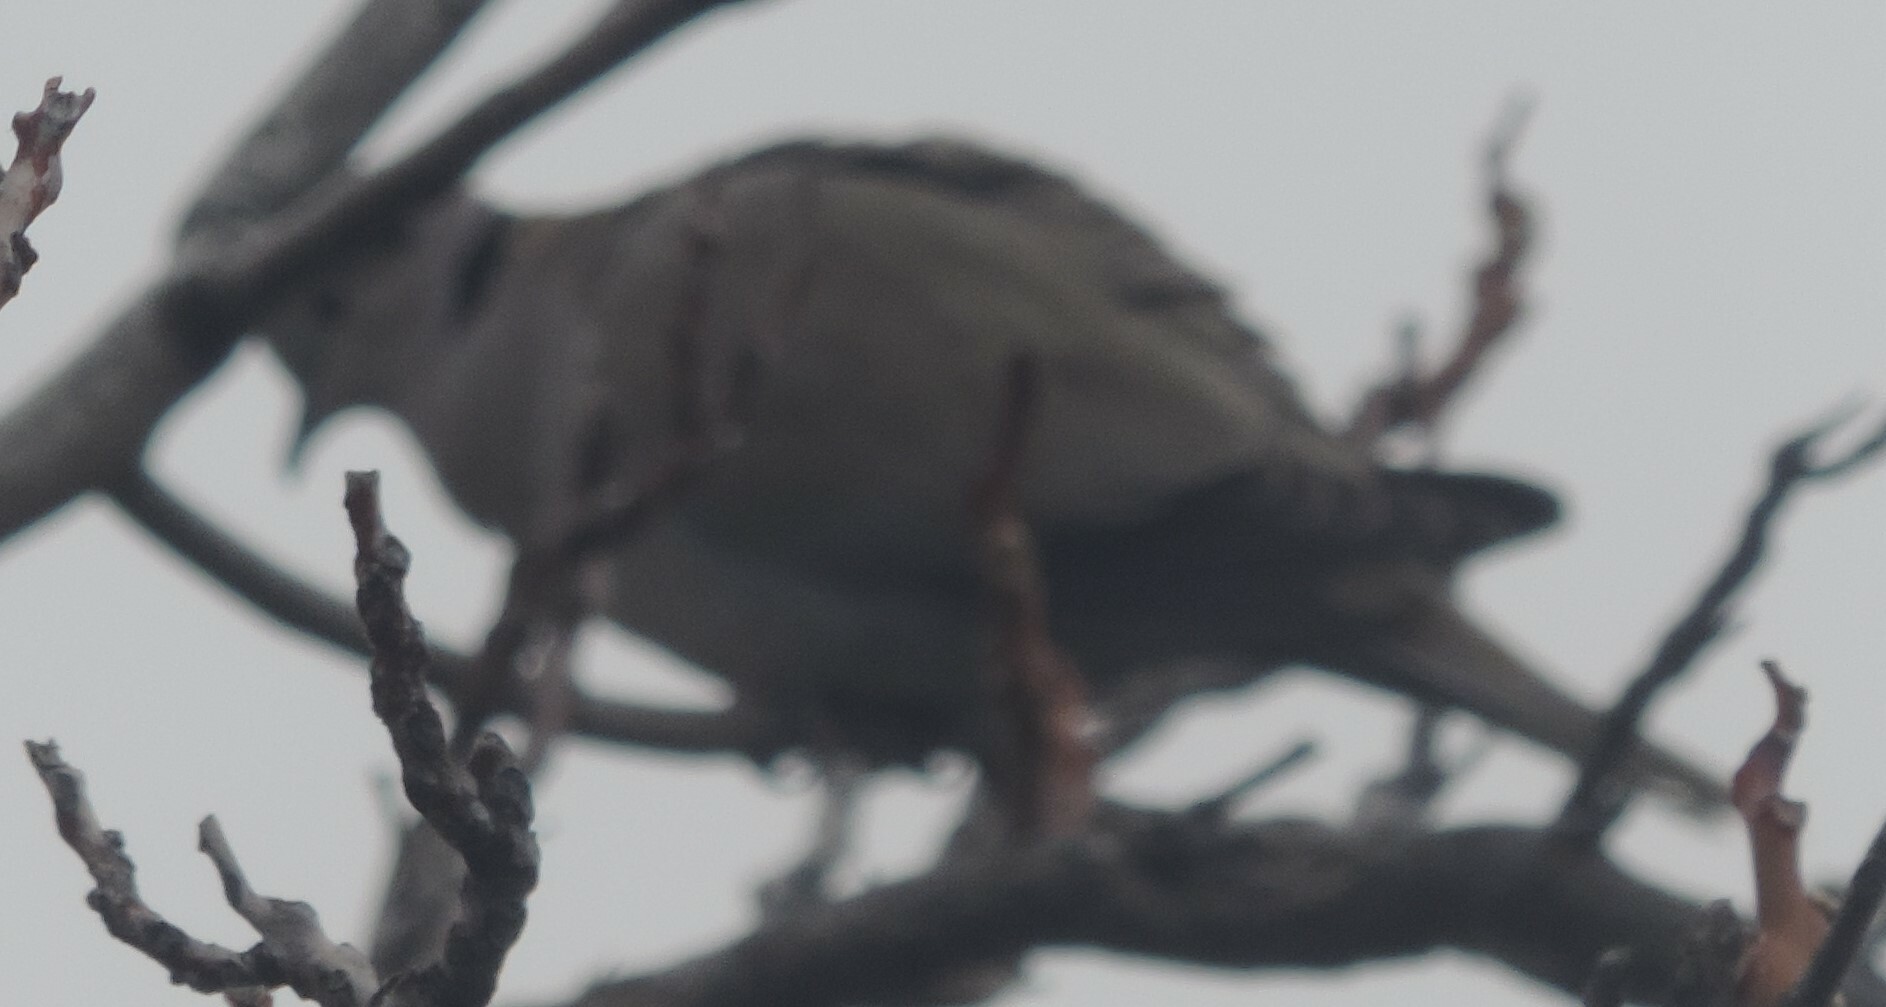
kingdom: Animalia
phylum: Chordata
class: Aves
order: Columbiformes
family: Columbidae
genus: Streptopelia
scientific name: Streptopelia decaocto
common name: Eurasian collared dove
